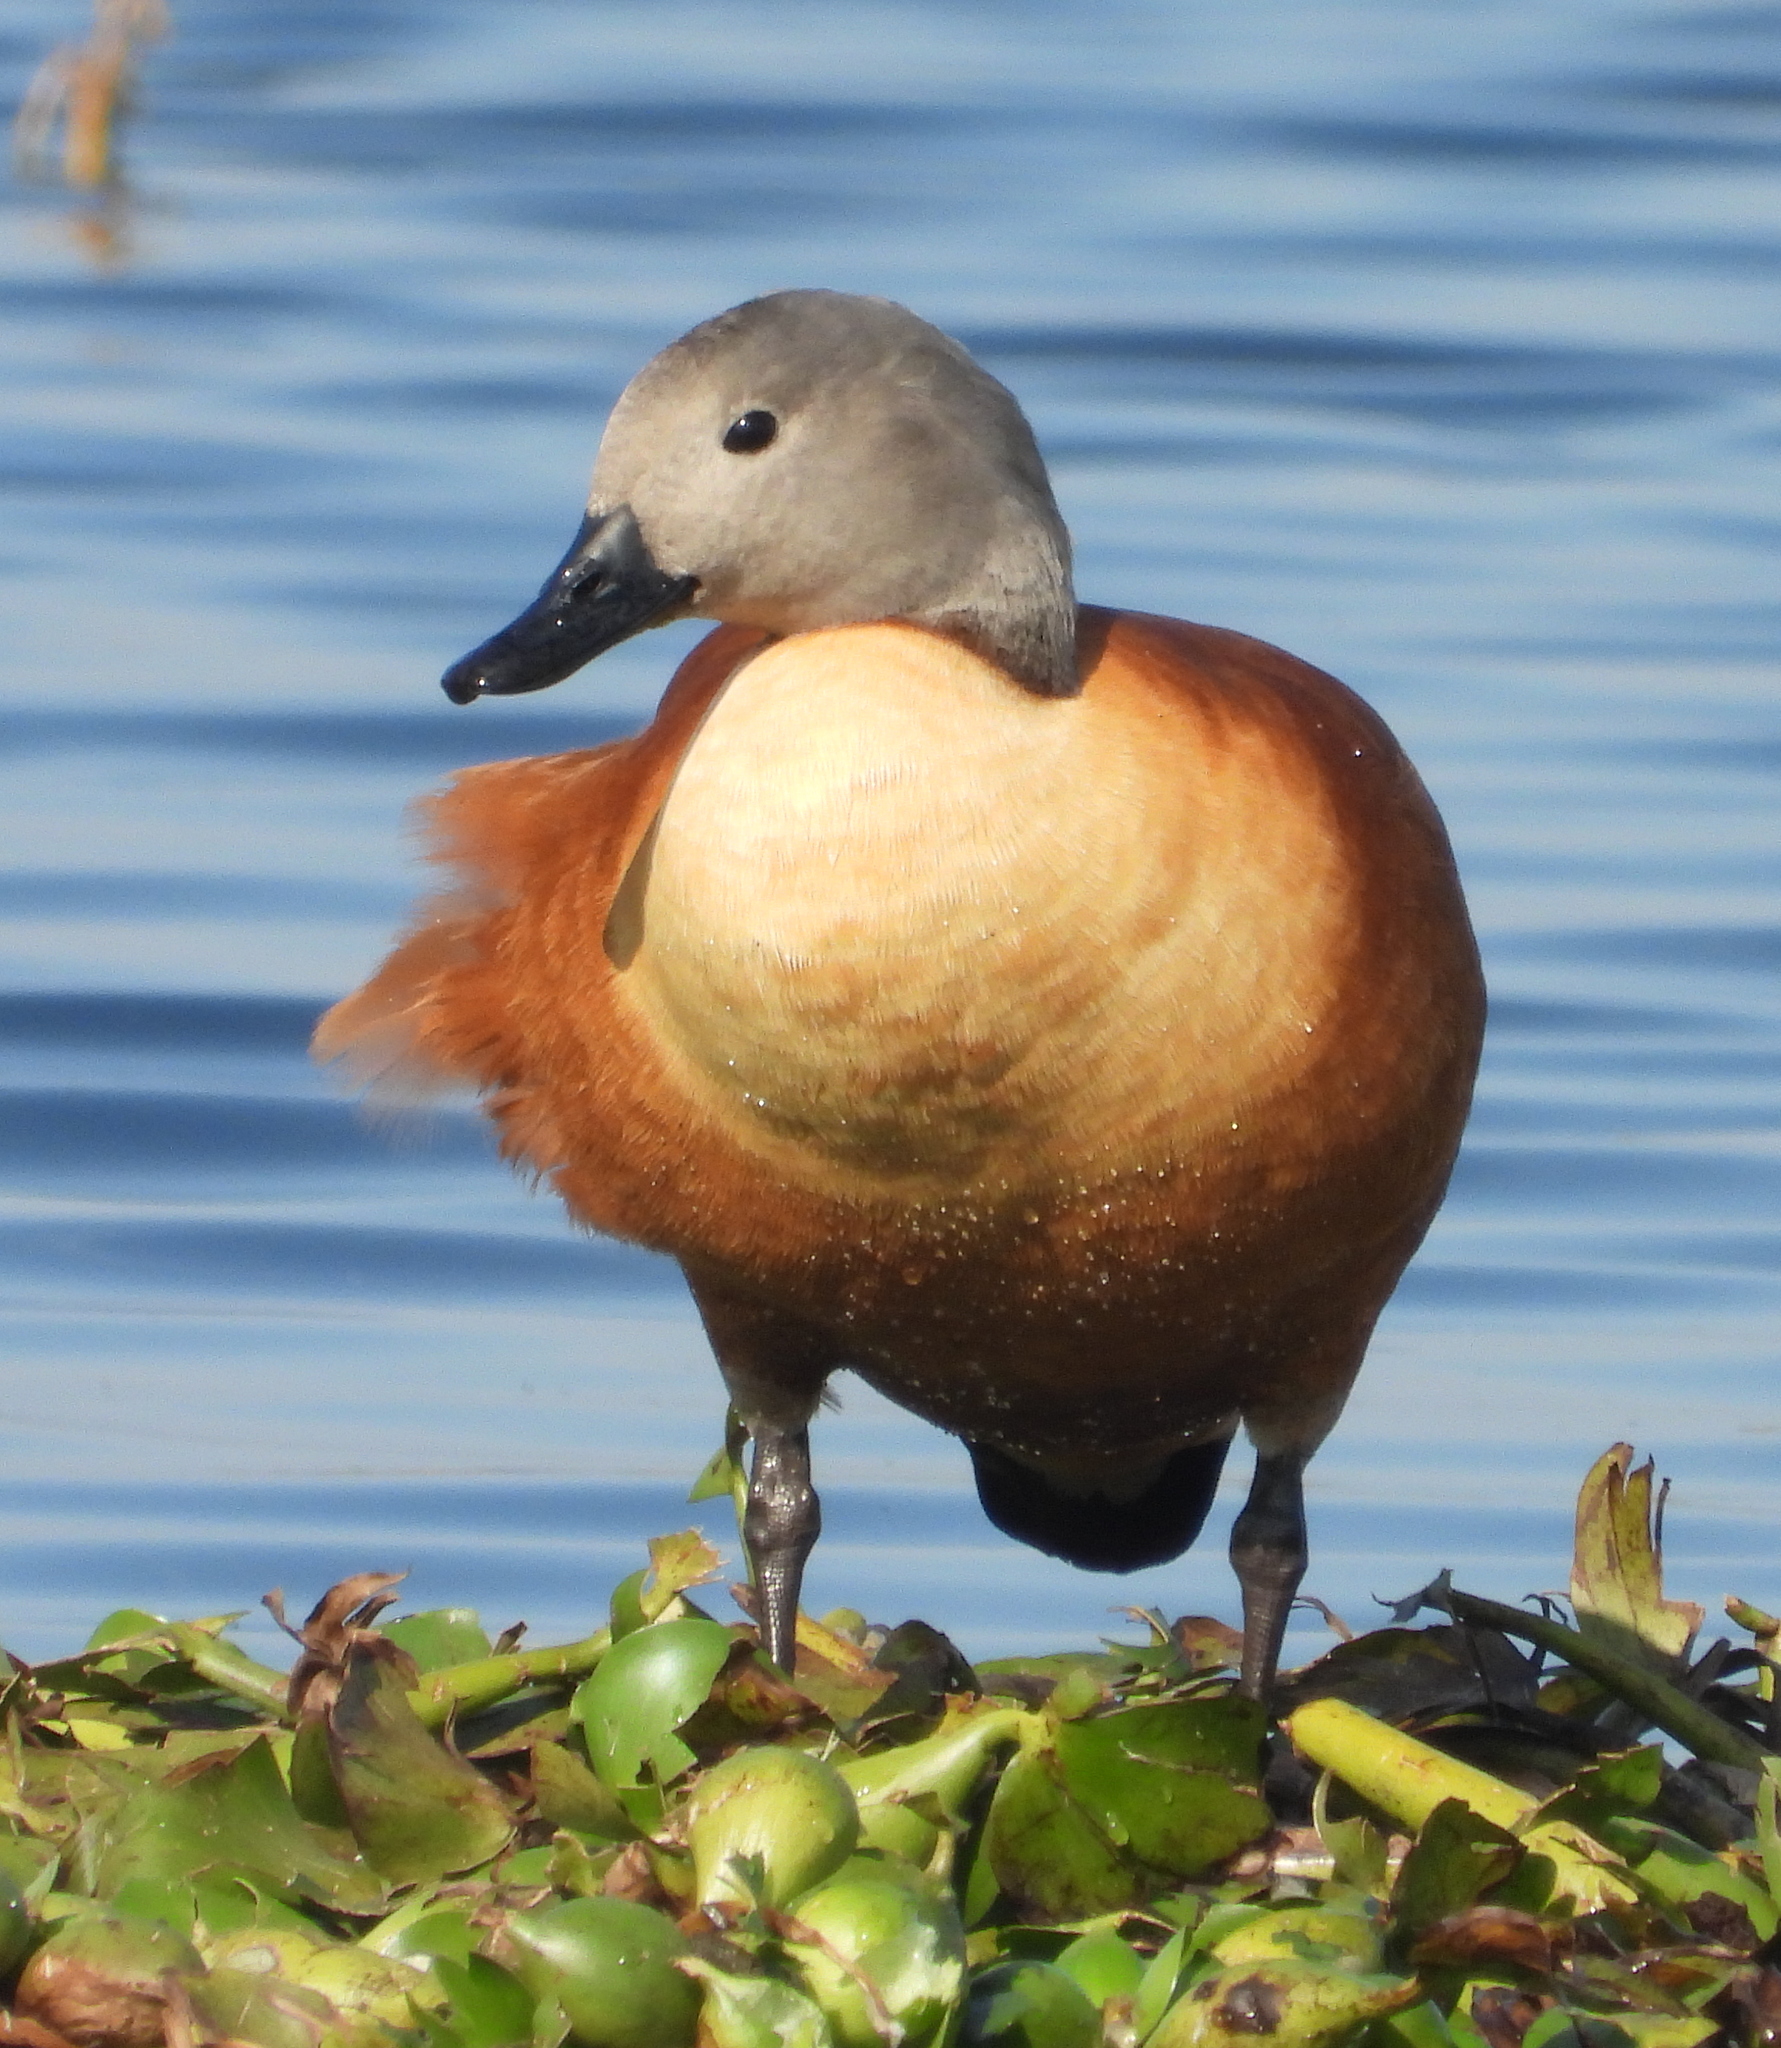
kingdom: Animalia
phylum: Chordata
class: Aves
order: Anseriformes
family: Anatidae
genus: Tadorna
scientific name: Tadorna cana
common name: South african shelduck
